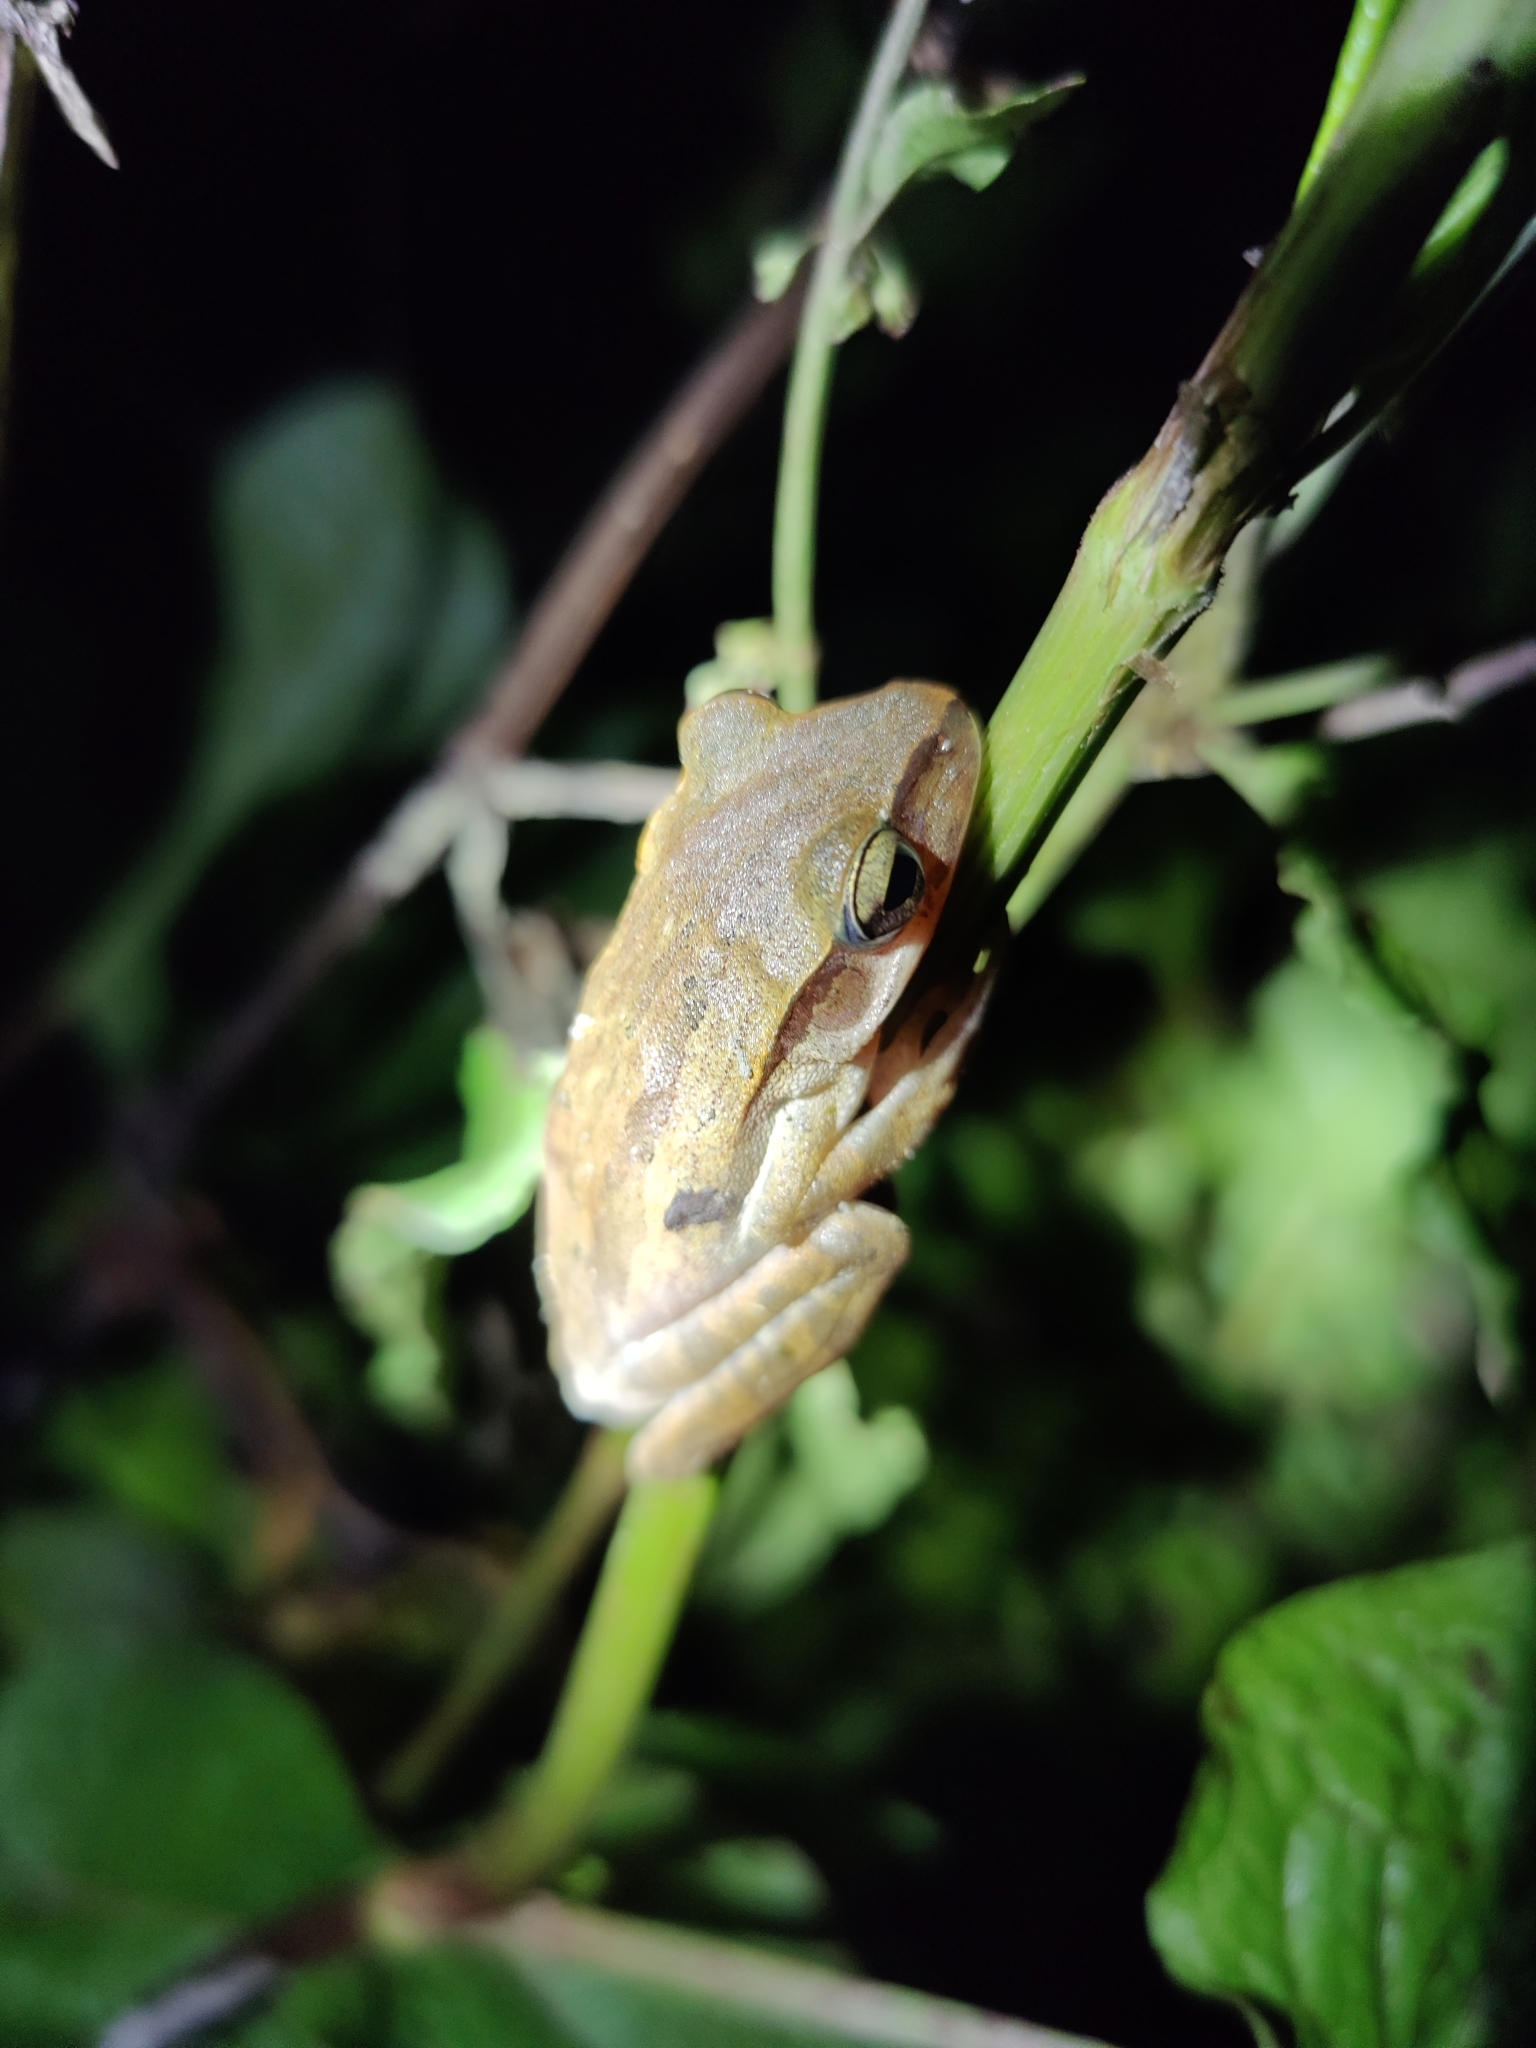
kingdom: Animalia
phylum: Chordata
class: Amphibia
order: Anura
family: Rhacophoridae
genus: Polypedates
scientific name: Polypedates subansiriensis
